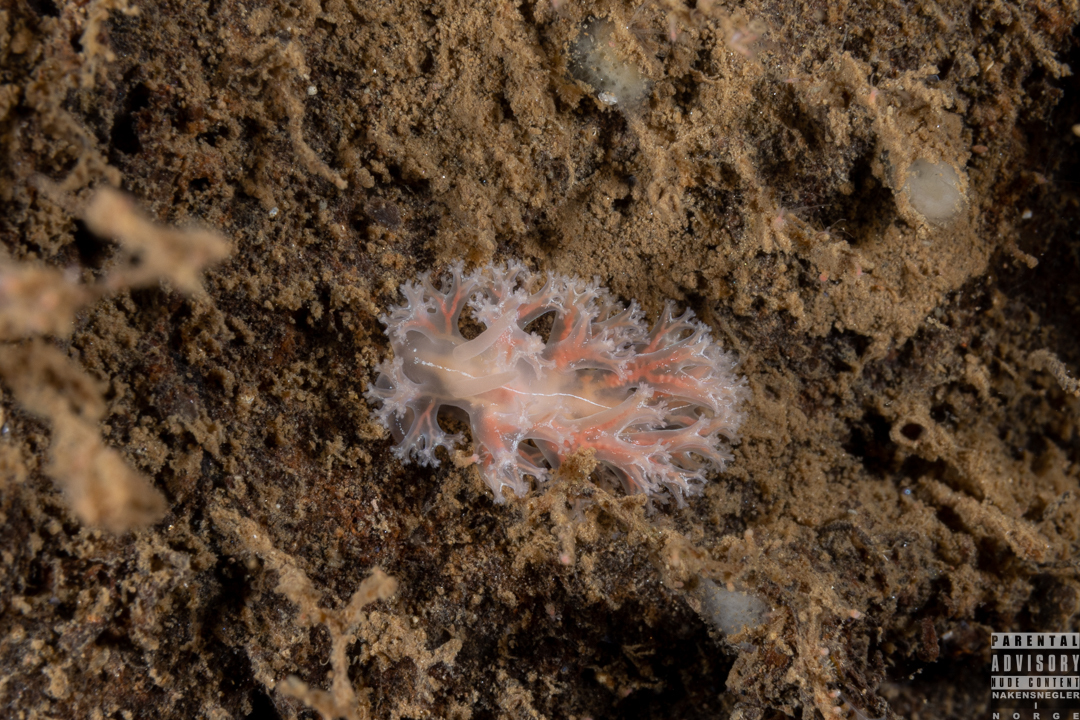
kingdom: Animalia
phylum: Mollusca
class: Gastropoda
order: Nudibranchia
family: Heroidae
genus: Hero
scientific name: Hero formosa
